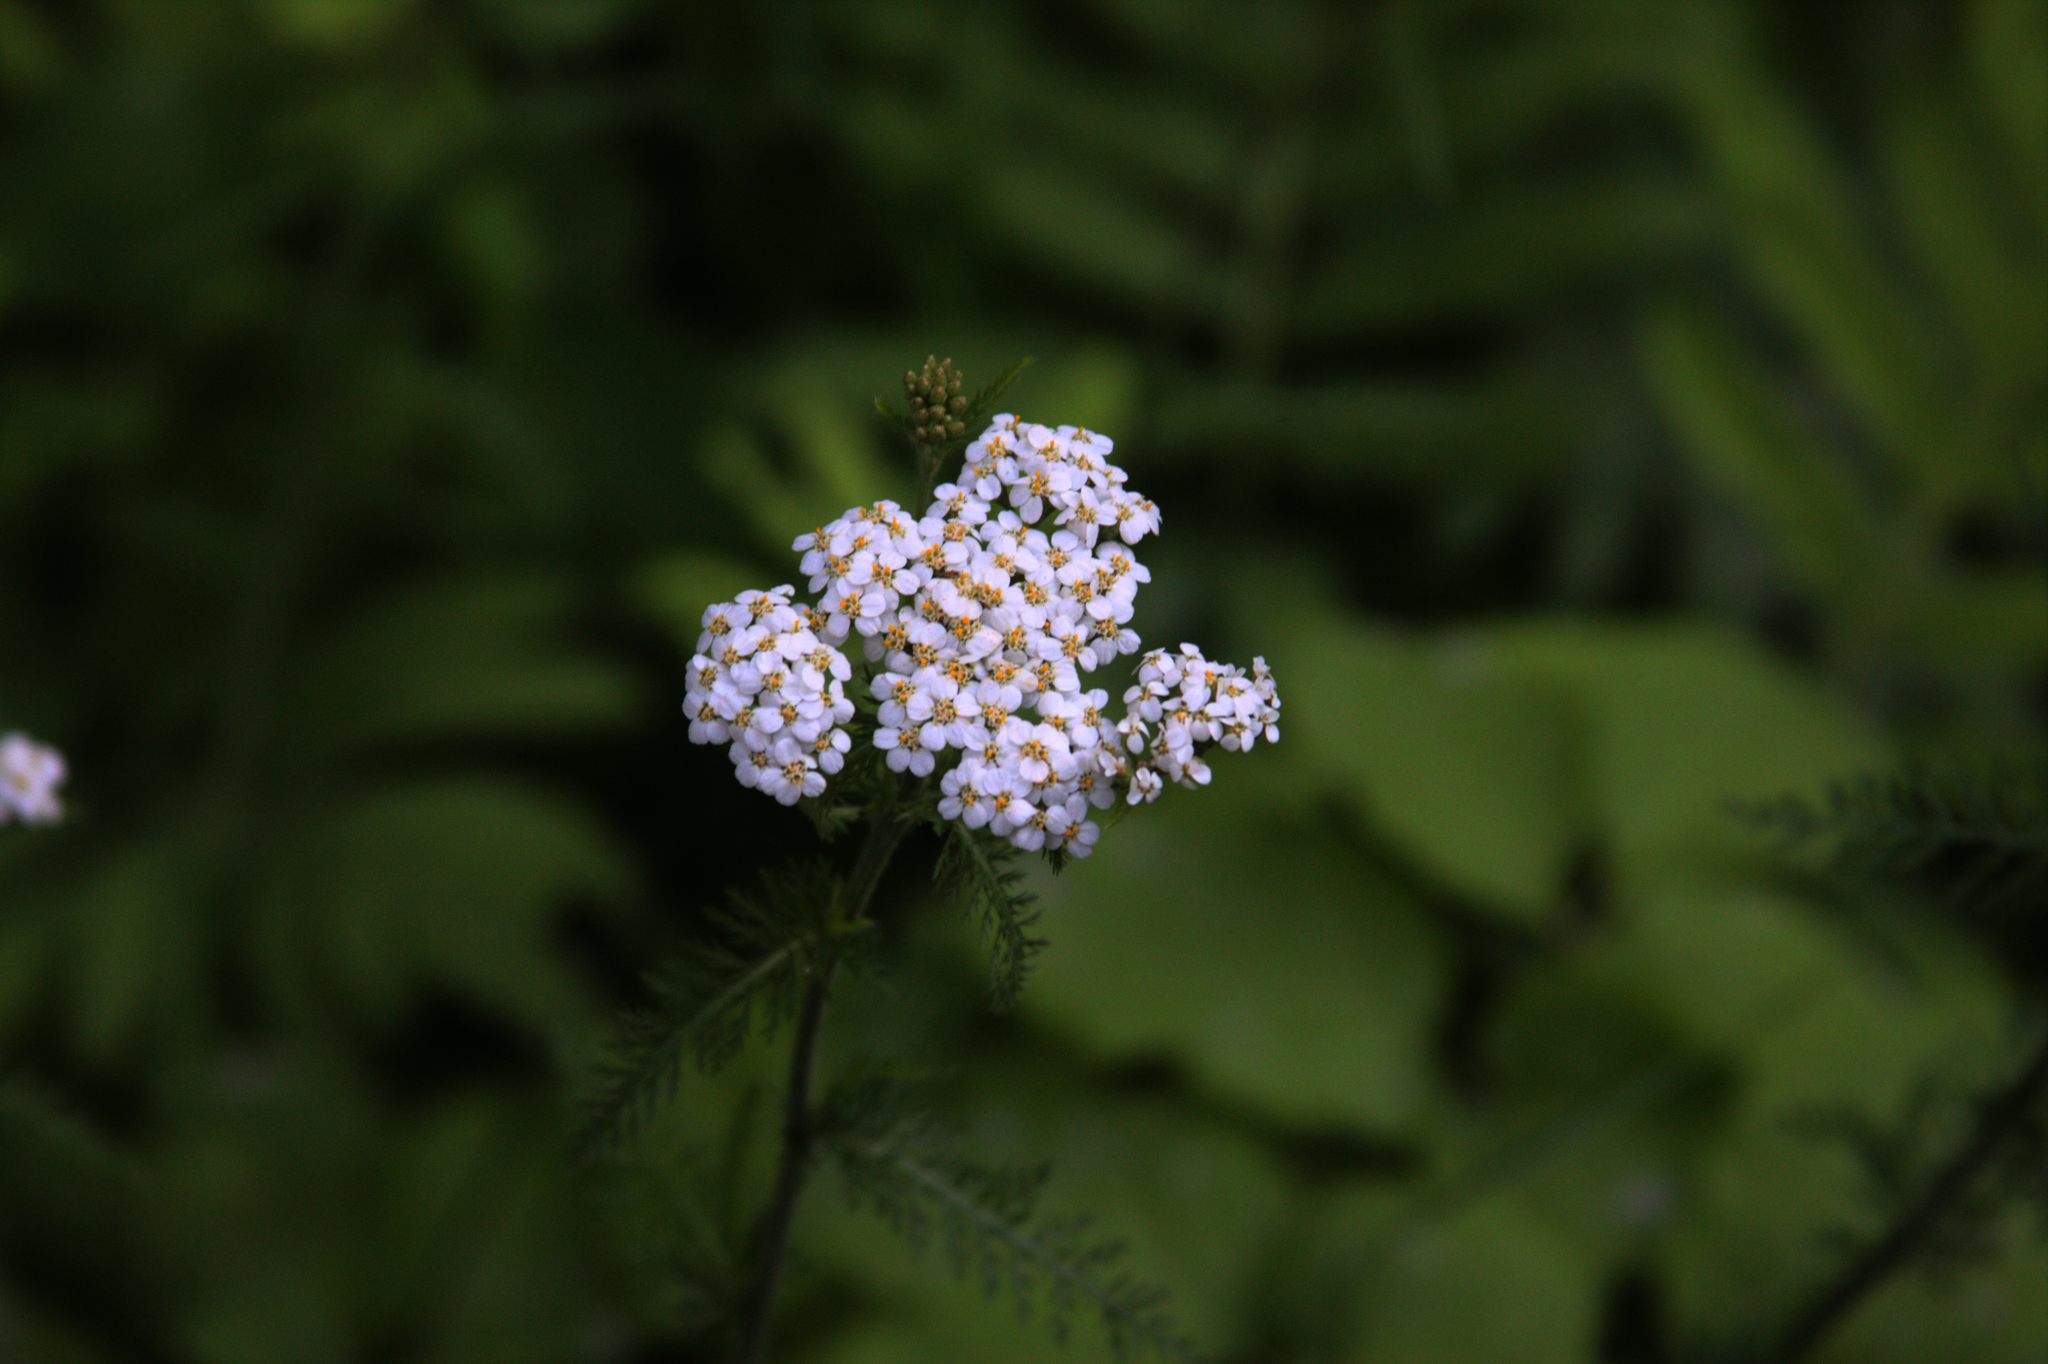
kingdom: Plantae
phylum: Tracheophyta
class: Magnoliopsida
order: Asterales
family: Asteraceae
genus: Achillea
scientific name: Achillea millefolium
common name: Yarrow
